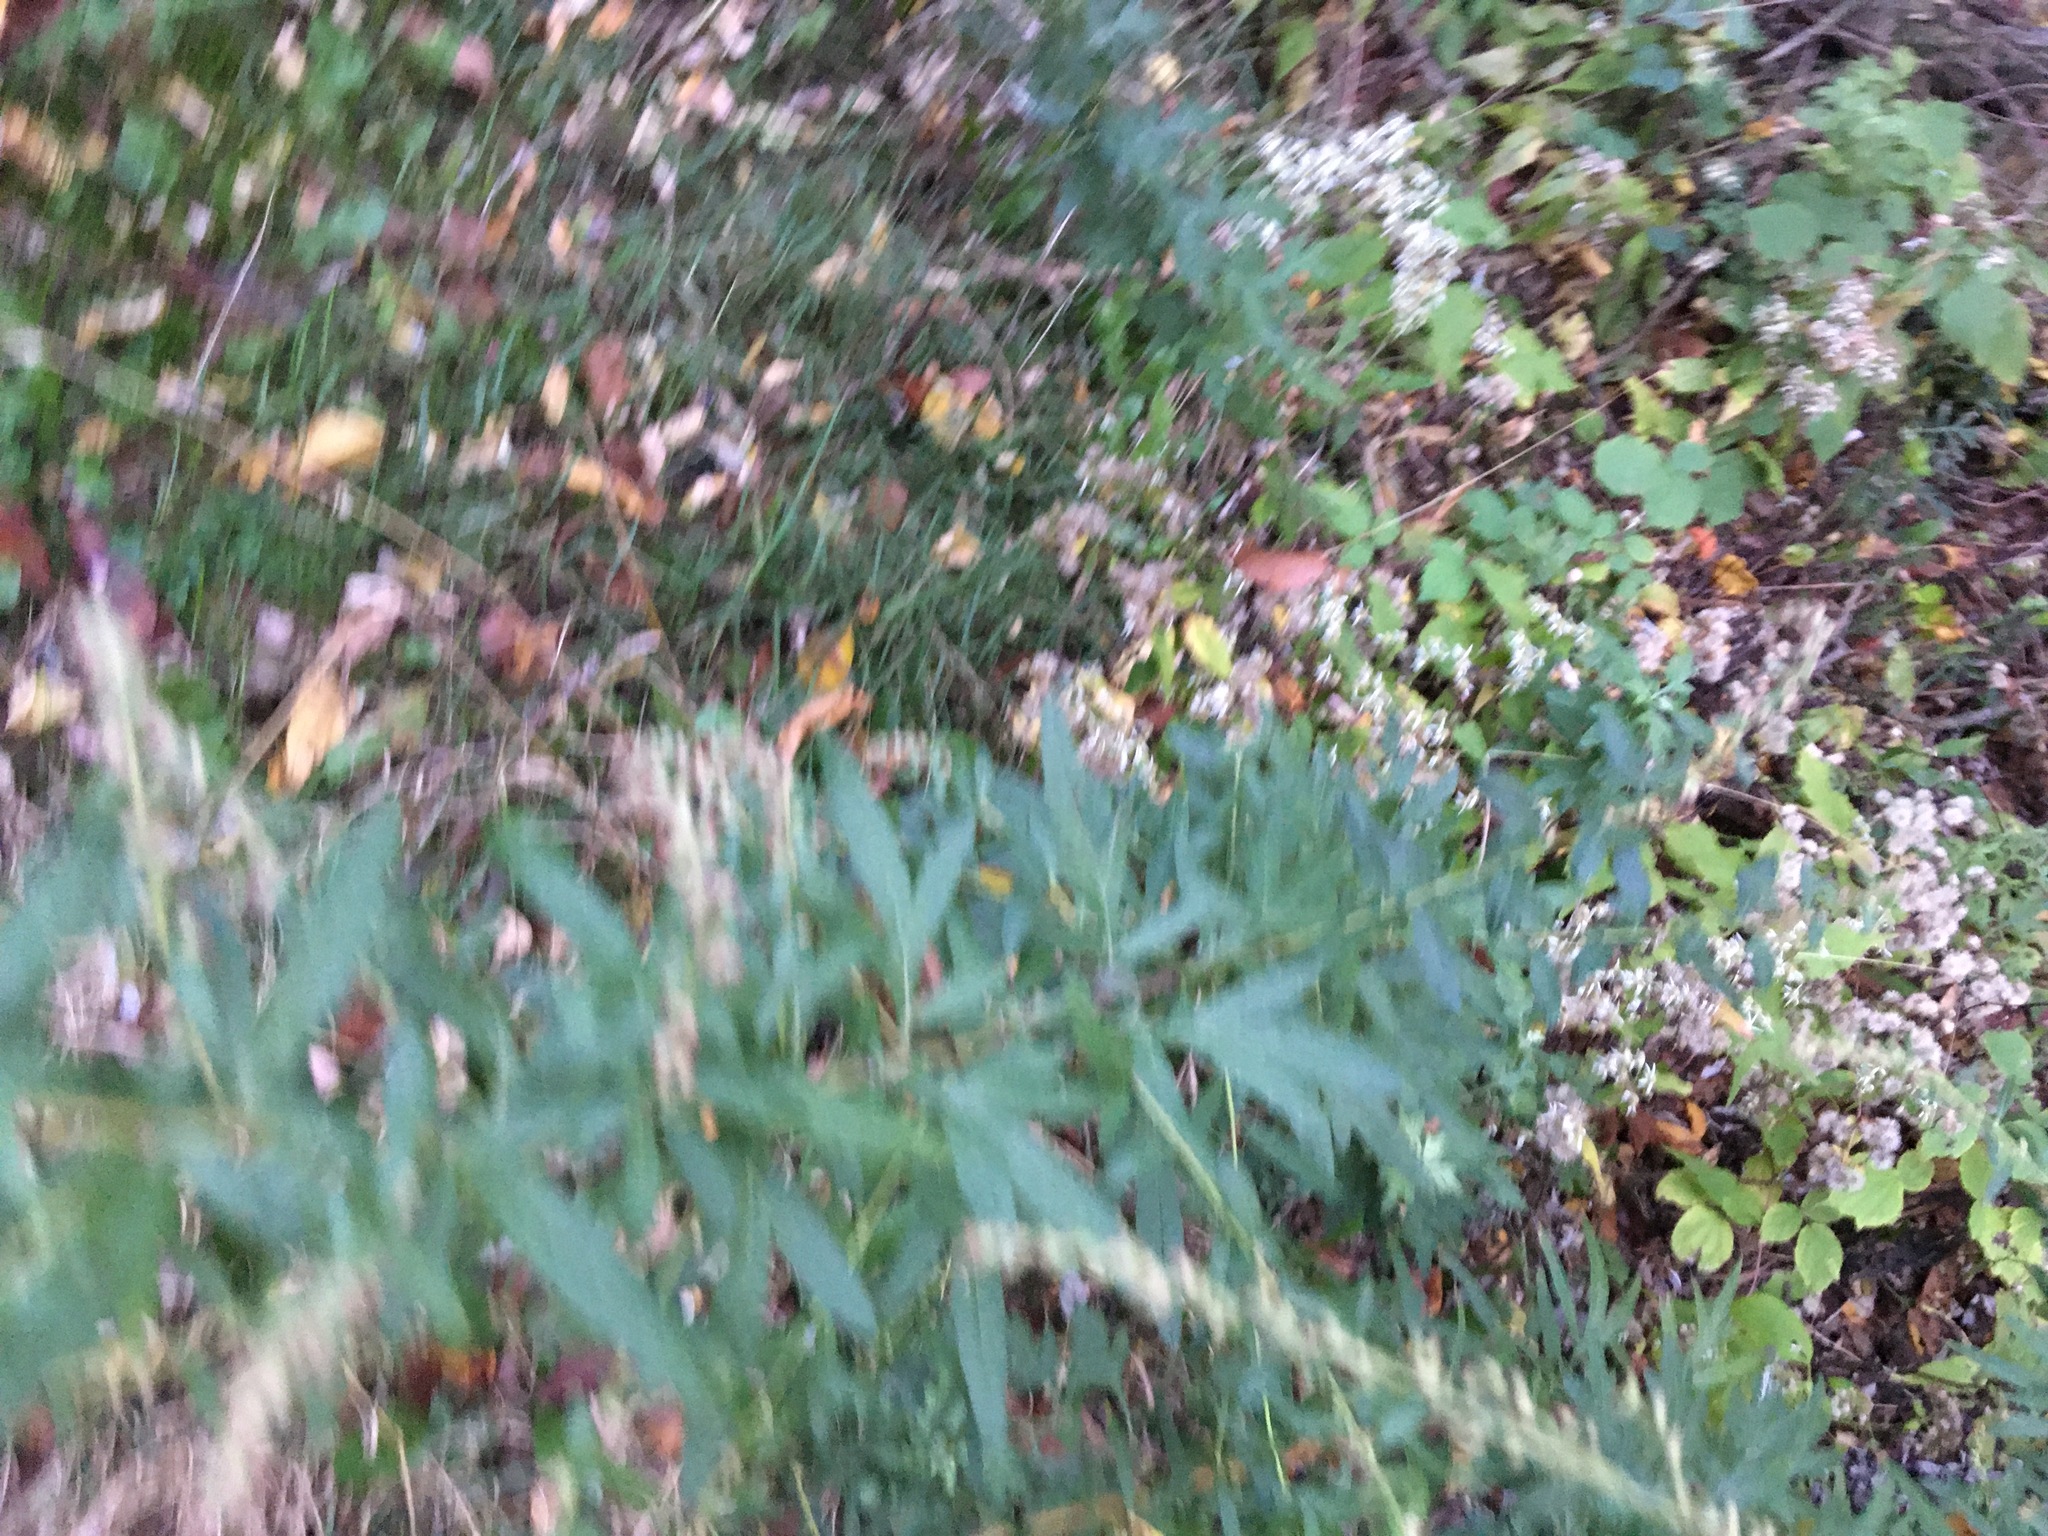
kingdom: Plantae
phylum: Tracheophyta
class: Magnoliopsida
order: Asterales
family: Asteraceae
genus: Artemisia
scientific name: Artemisia vulgaris
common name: Mugwort
